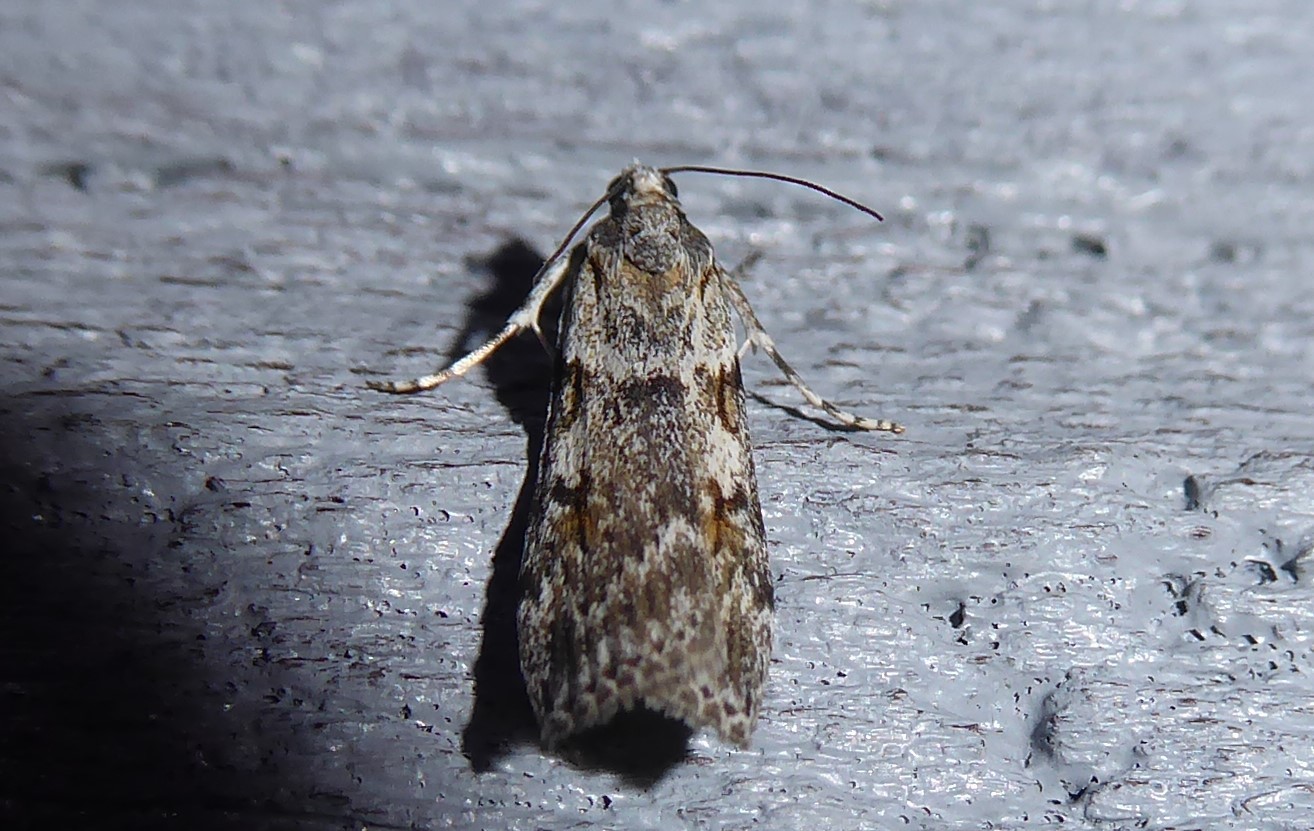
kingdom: Animalia
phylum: Arthropoda
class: Insecta
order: Lepidoptera
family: Crambidae
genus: Scoparia
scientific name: Scoparia halopis
